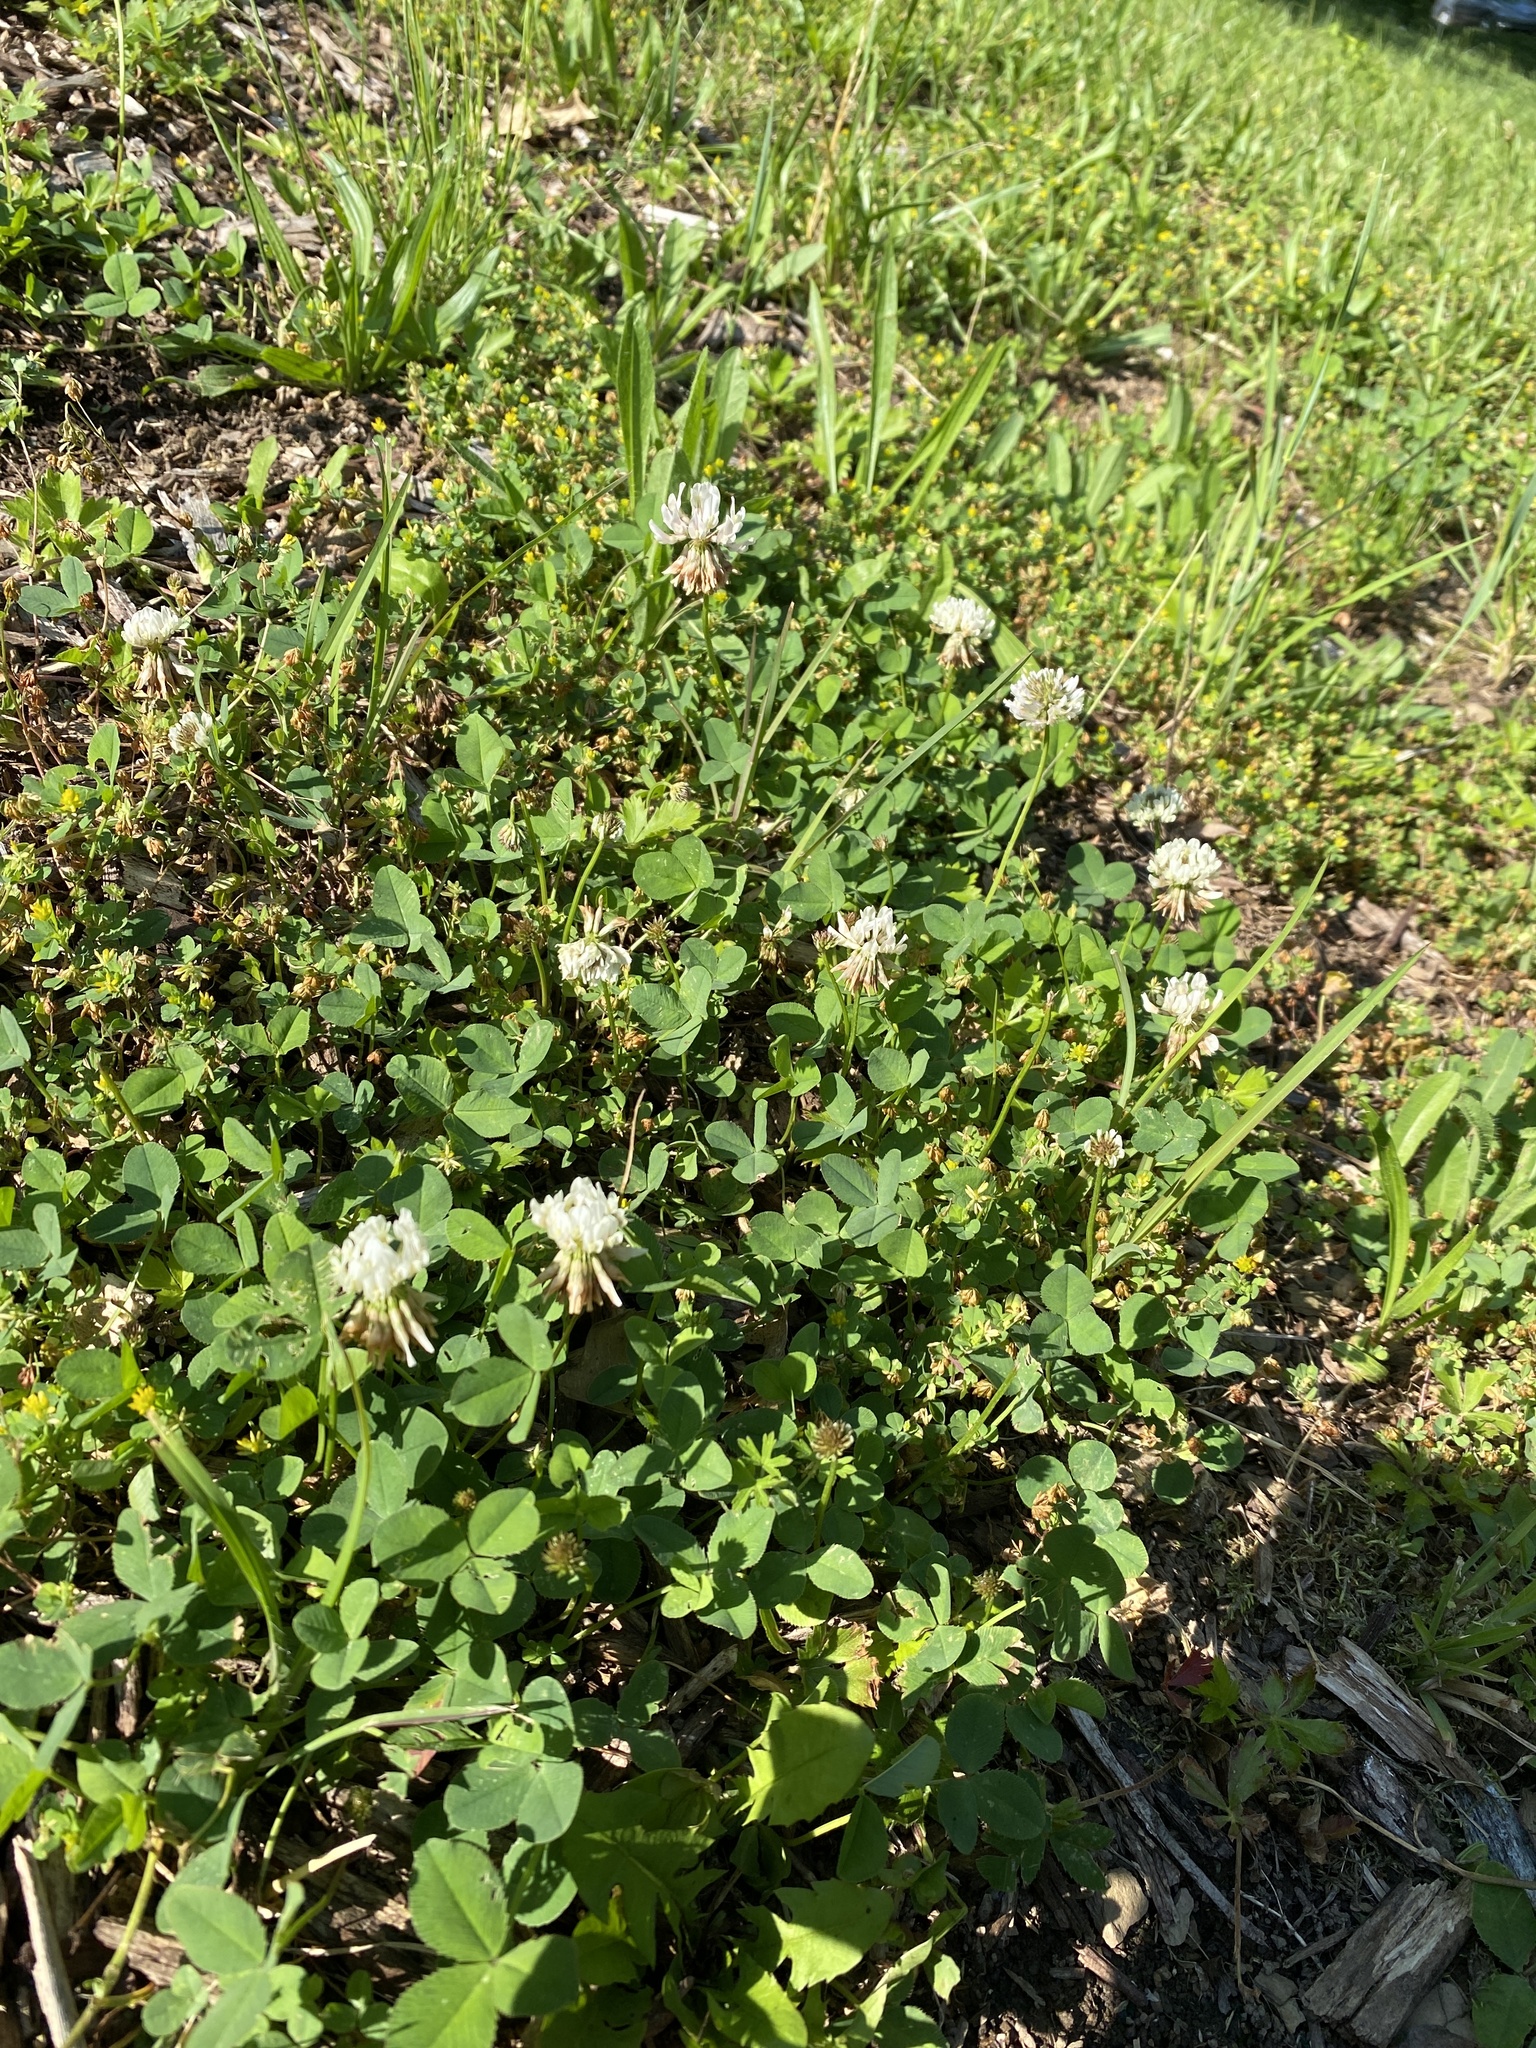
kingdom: Plantae
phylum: Tracheophyta
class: Magnoliopsida
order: Fabales
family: Fabaceae
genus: Trifolium
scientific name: Trifolium repens
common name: White clover
